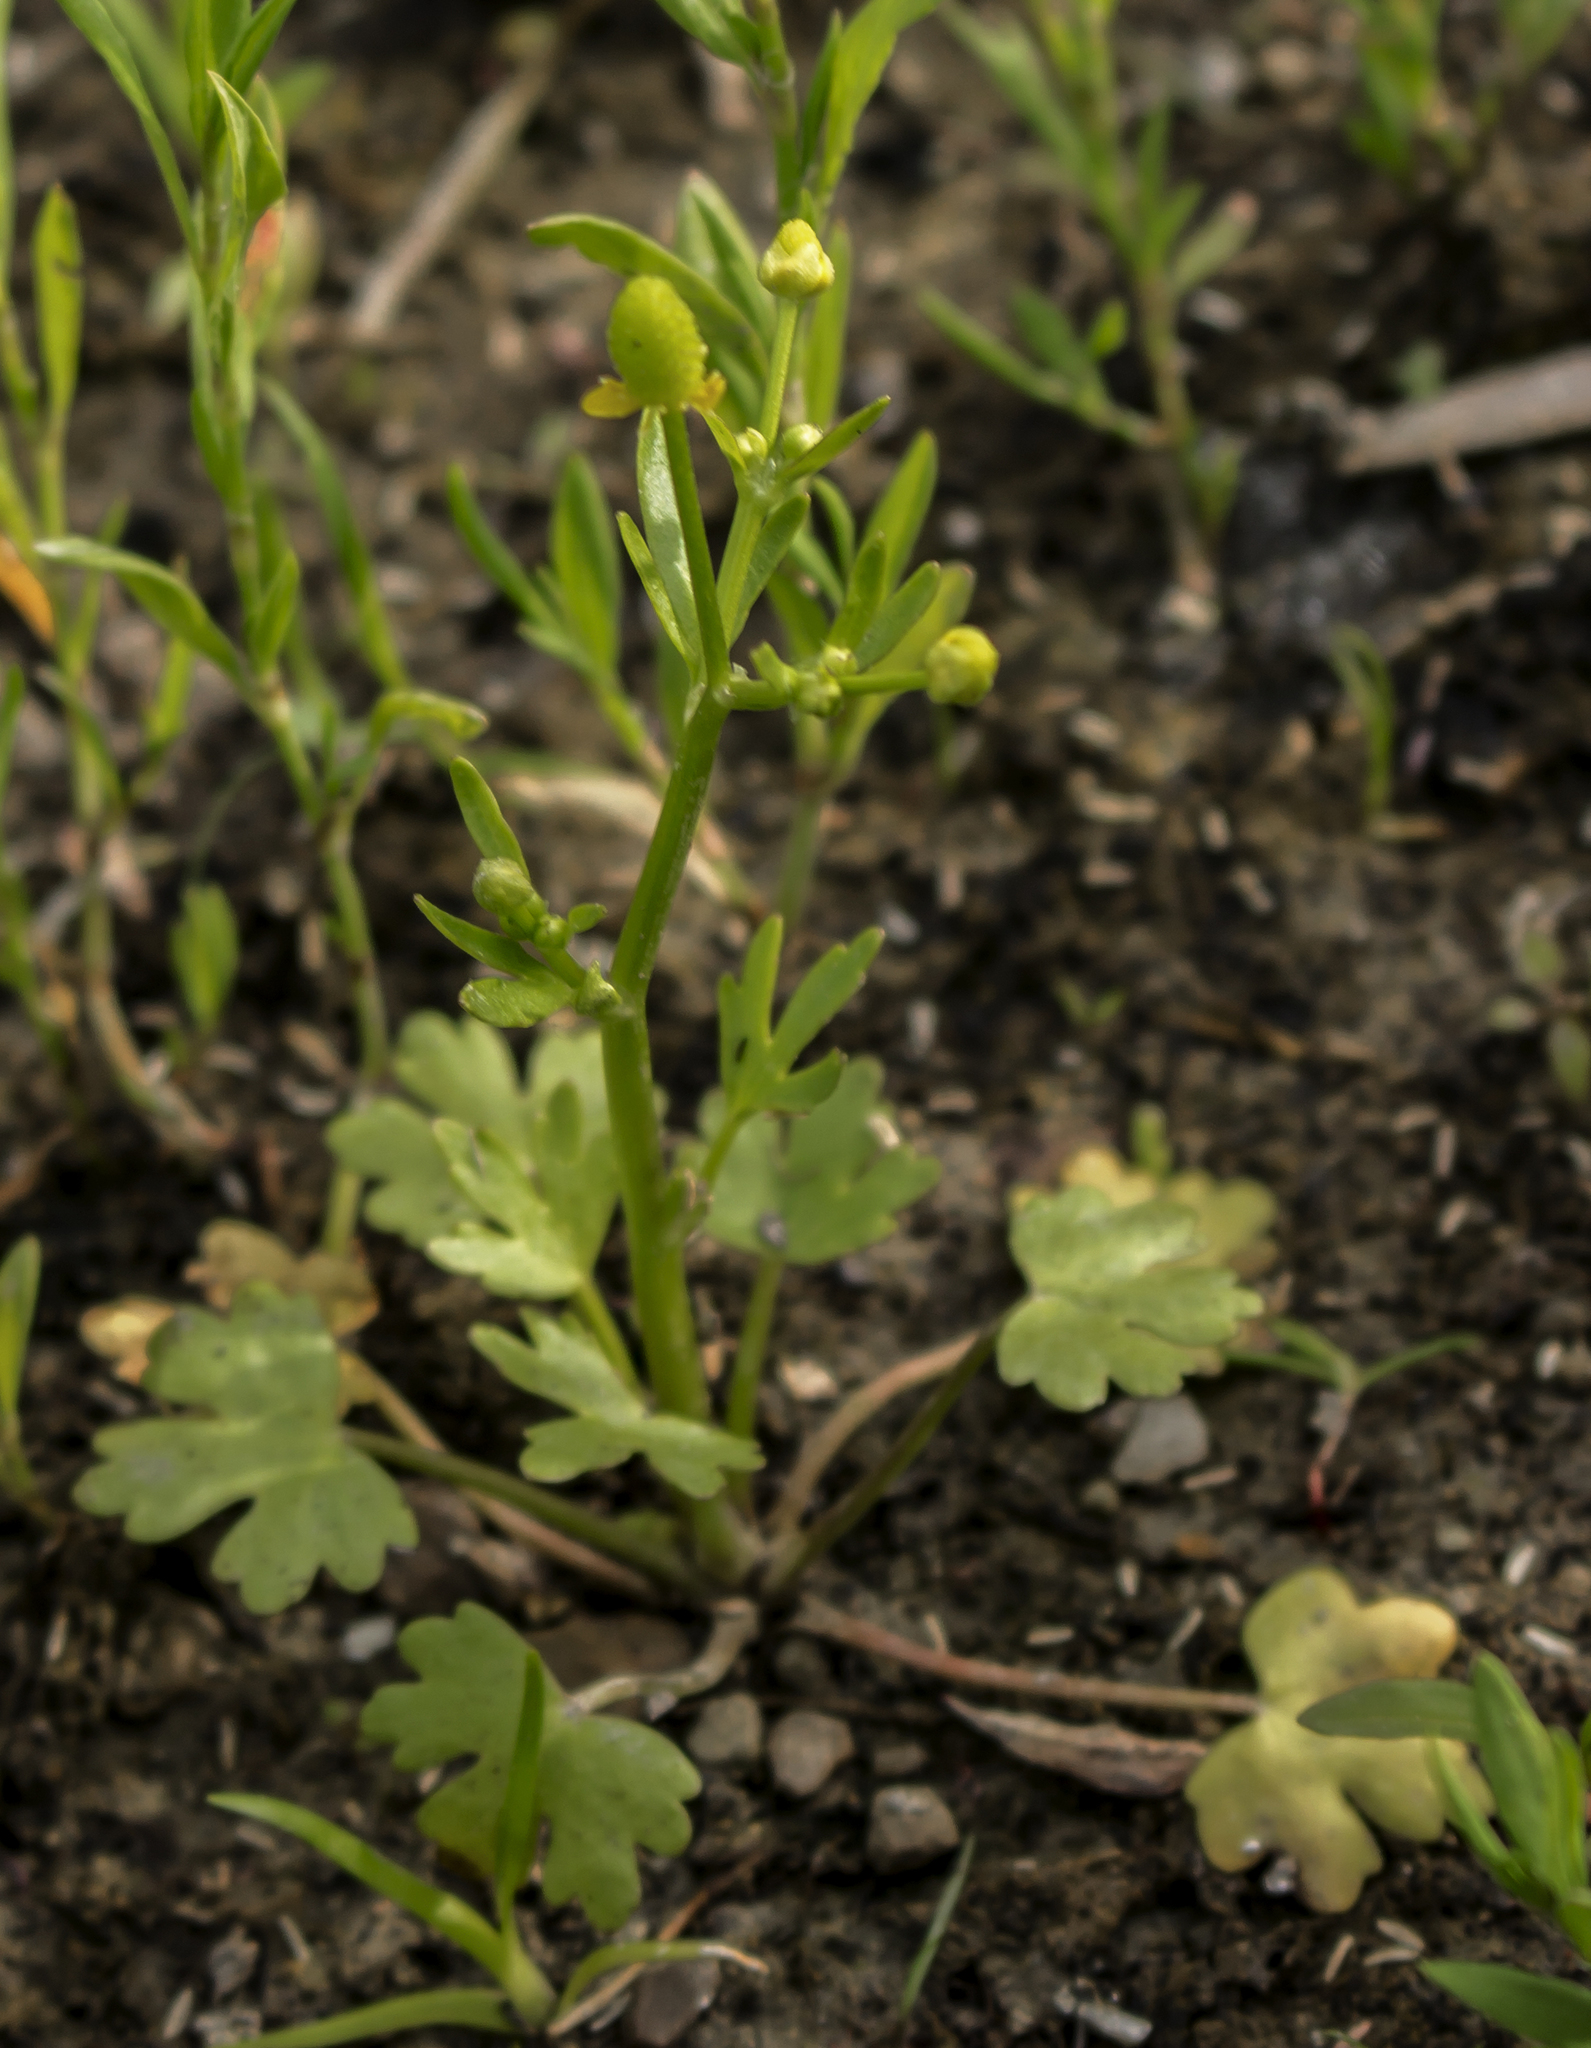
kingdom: Plantae
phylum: Tracheophyta
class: Magnoliopsida
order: Ranunculales
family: Ranunculaceae
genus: Ranunculus
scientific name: Ranunculus sceleratus
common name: Celery-leaved buttercup
